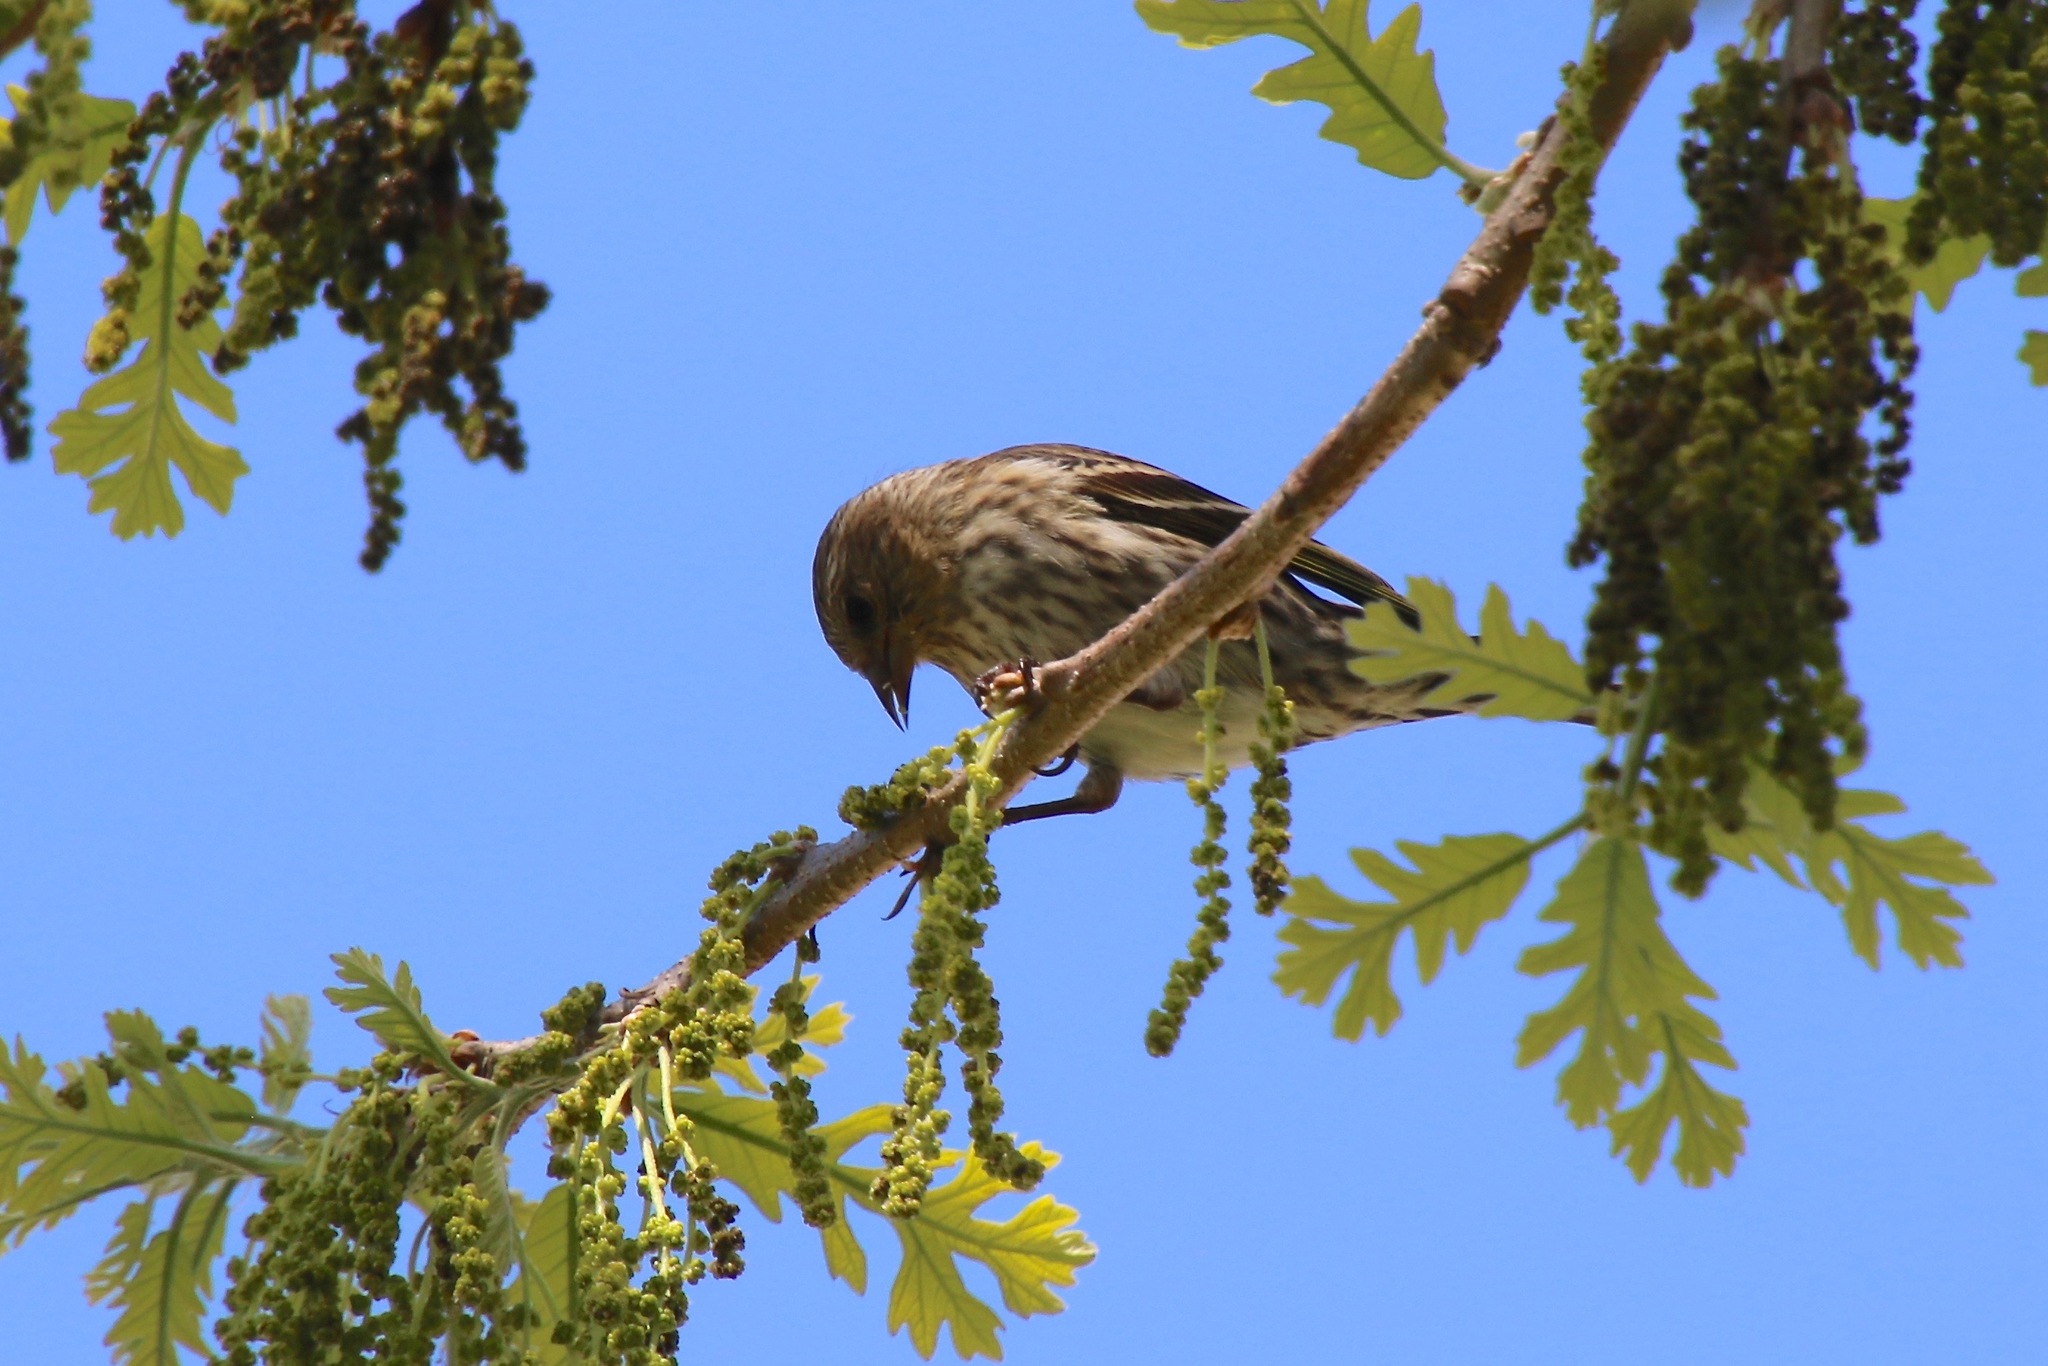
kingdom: Animalia
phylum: Chordata
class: Aves
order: Passeriformes
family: Fringillidae
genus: Spinus
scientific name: Spinus pinus
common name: Pine siskin
